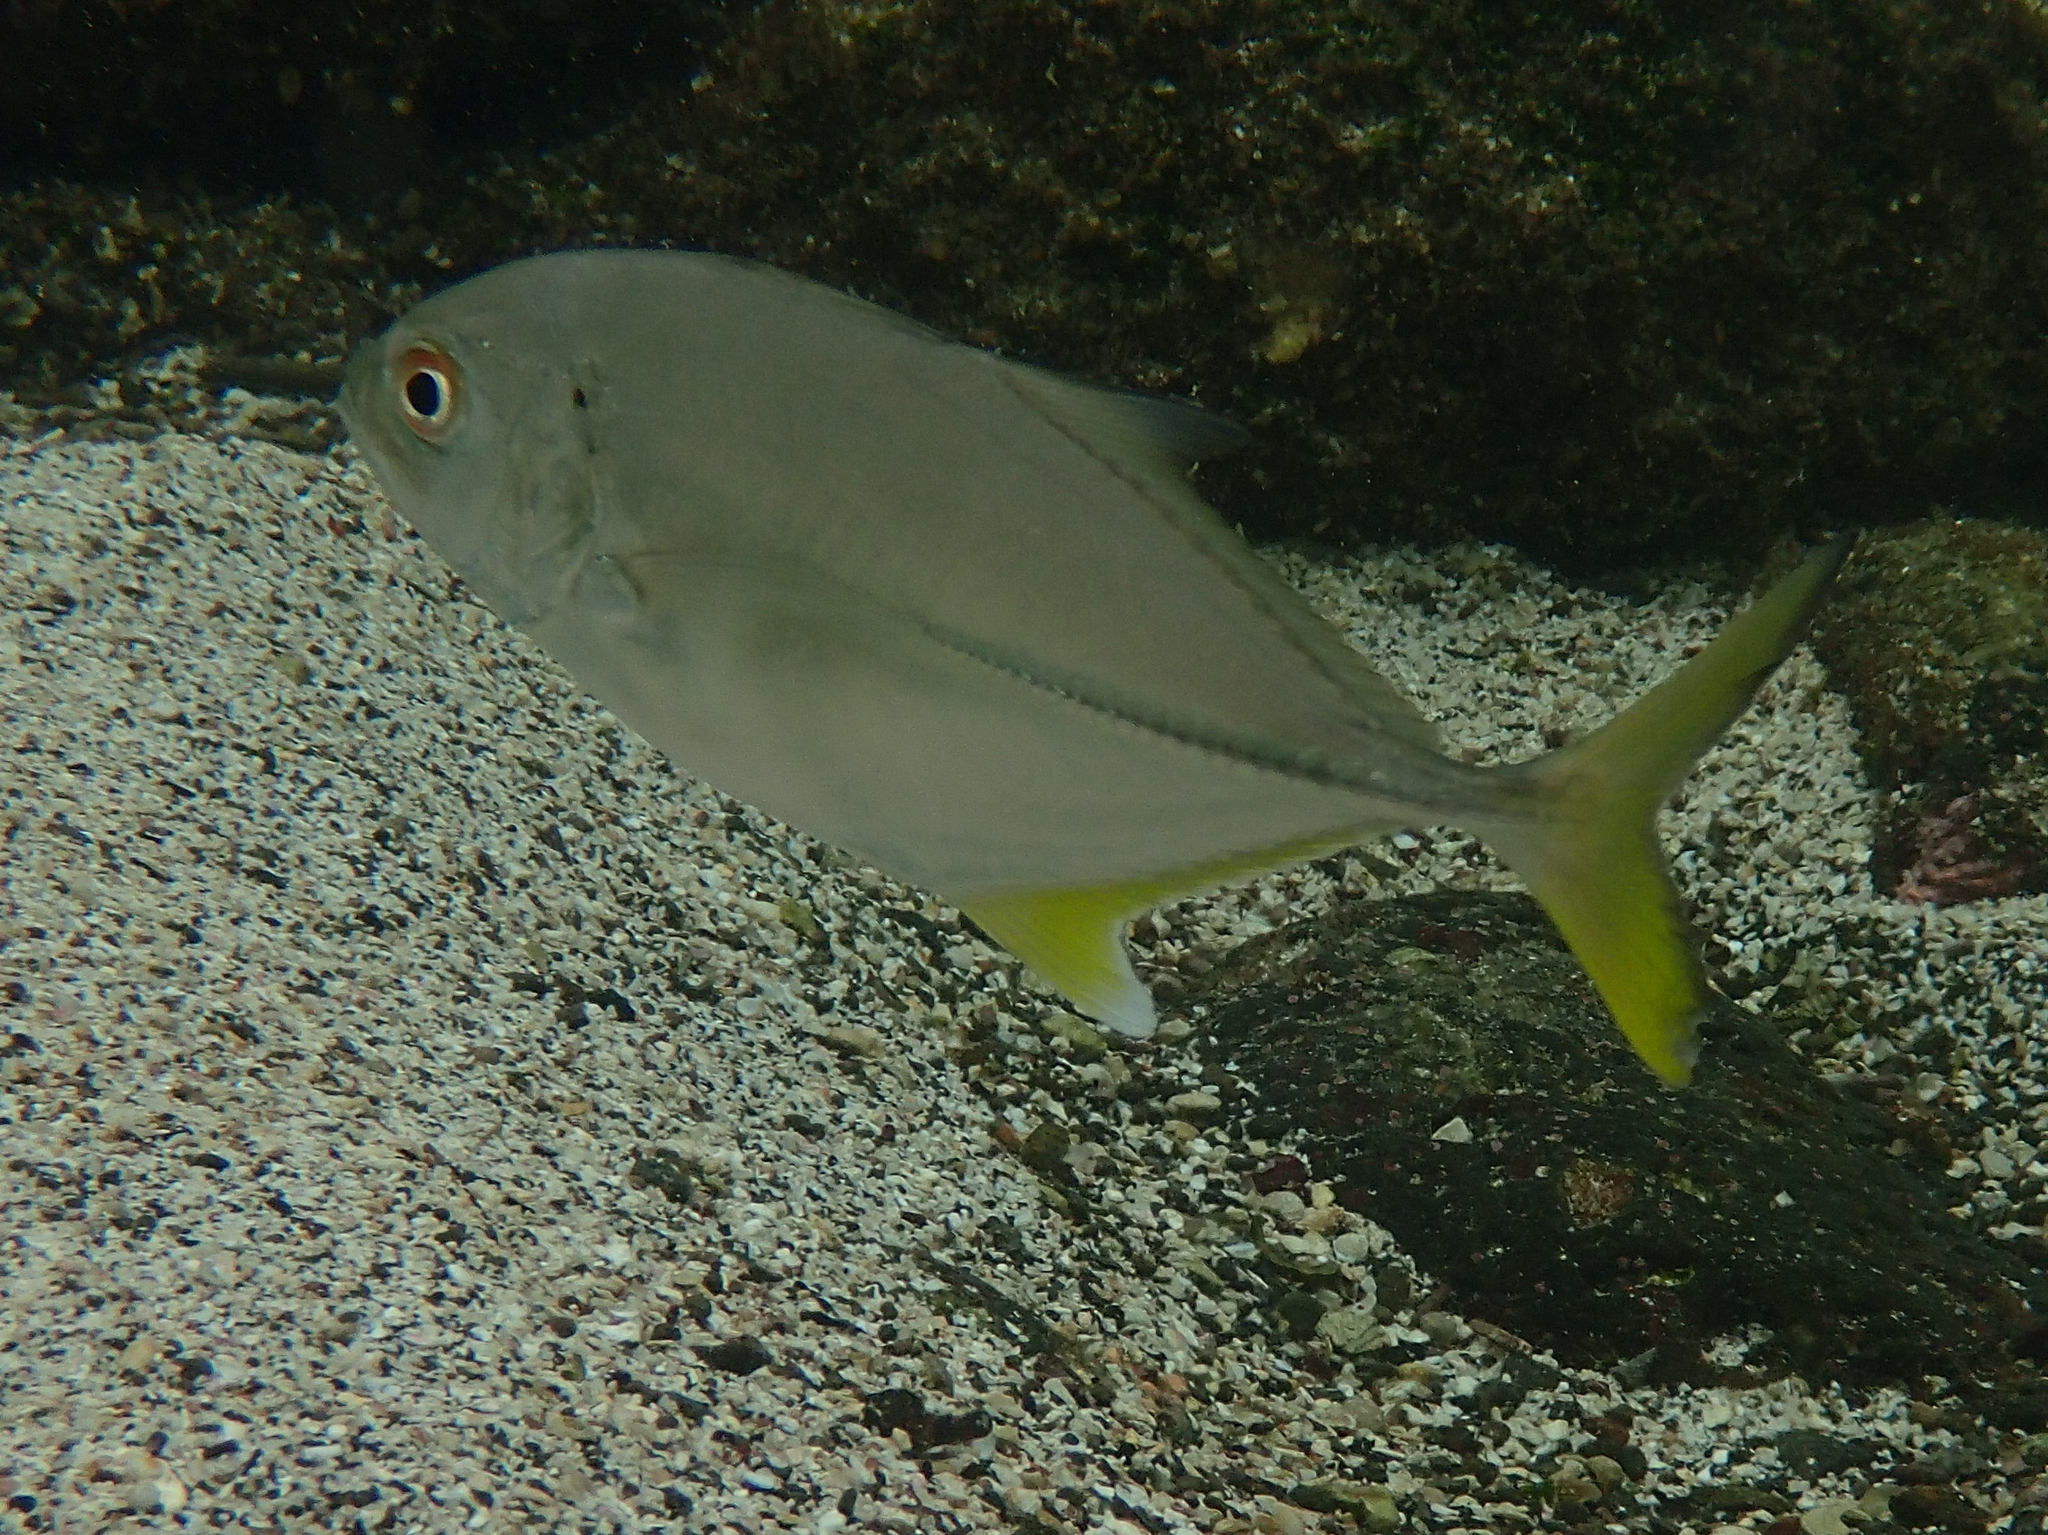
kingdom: Animalia
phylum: Chordata
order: Perciformes
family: Carangidae
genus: Caranx
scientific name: Caranx sexfasciatus
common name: Bigeye trevally
